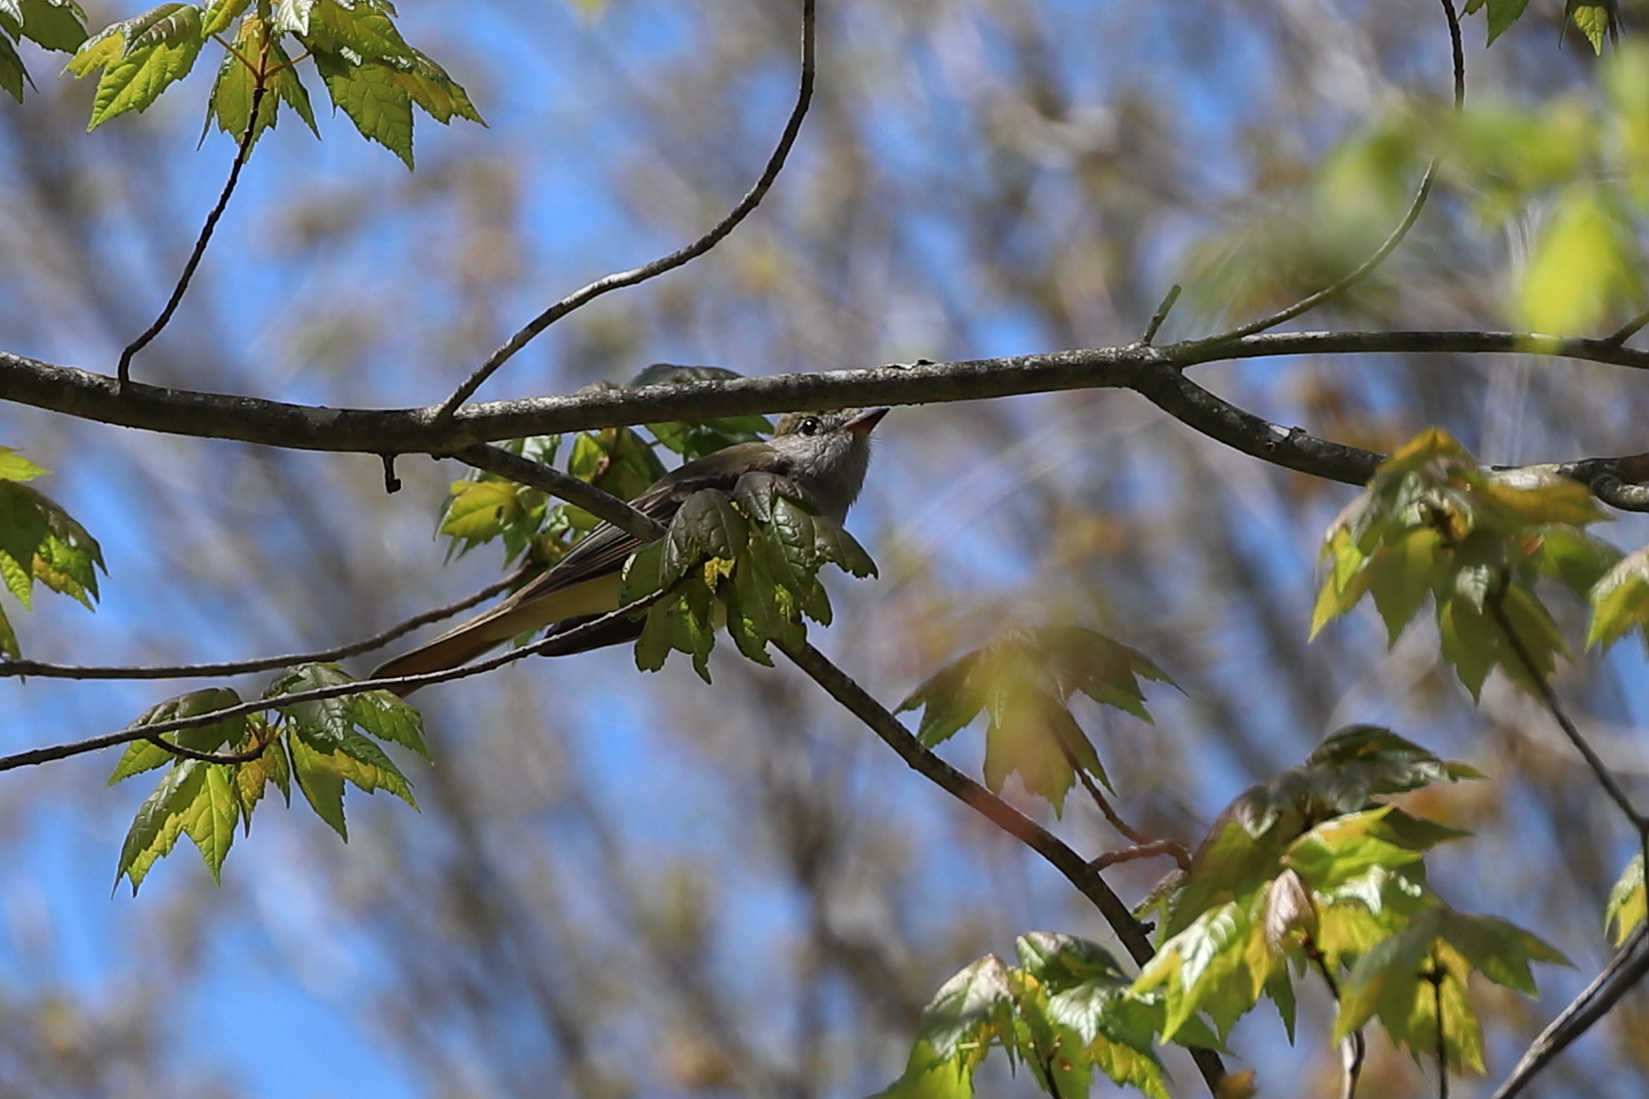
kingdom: Animalia
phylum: Chordata
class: Aves
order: Passeriformes
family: Tyrannidae
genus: Myiarchus
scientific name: Myiarchus crinitus
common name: Great crested flycatcher
